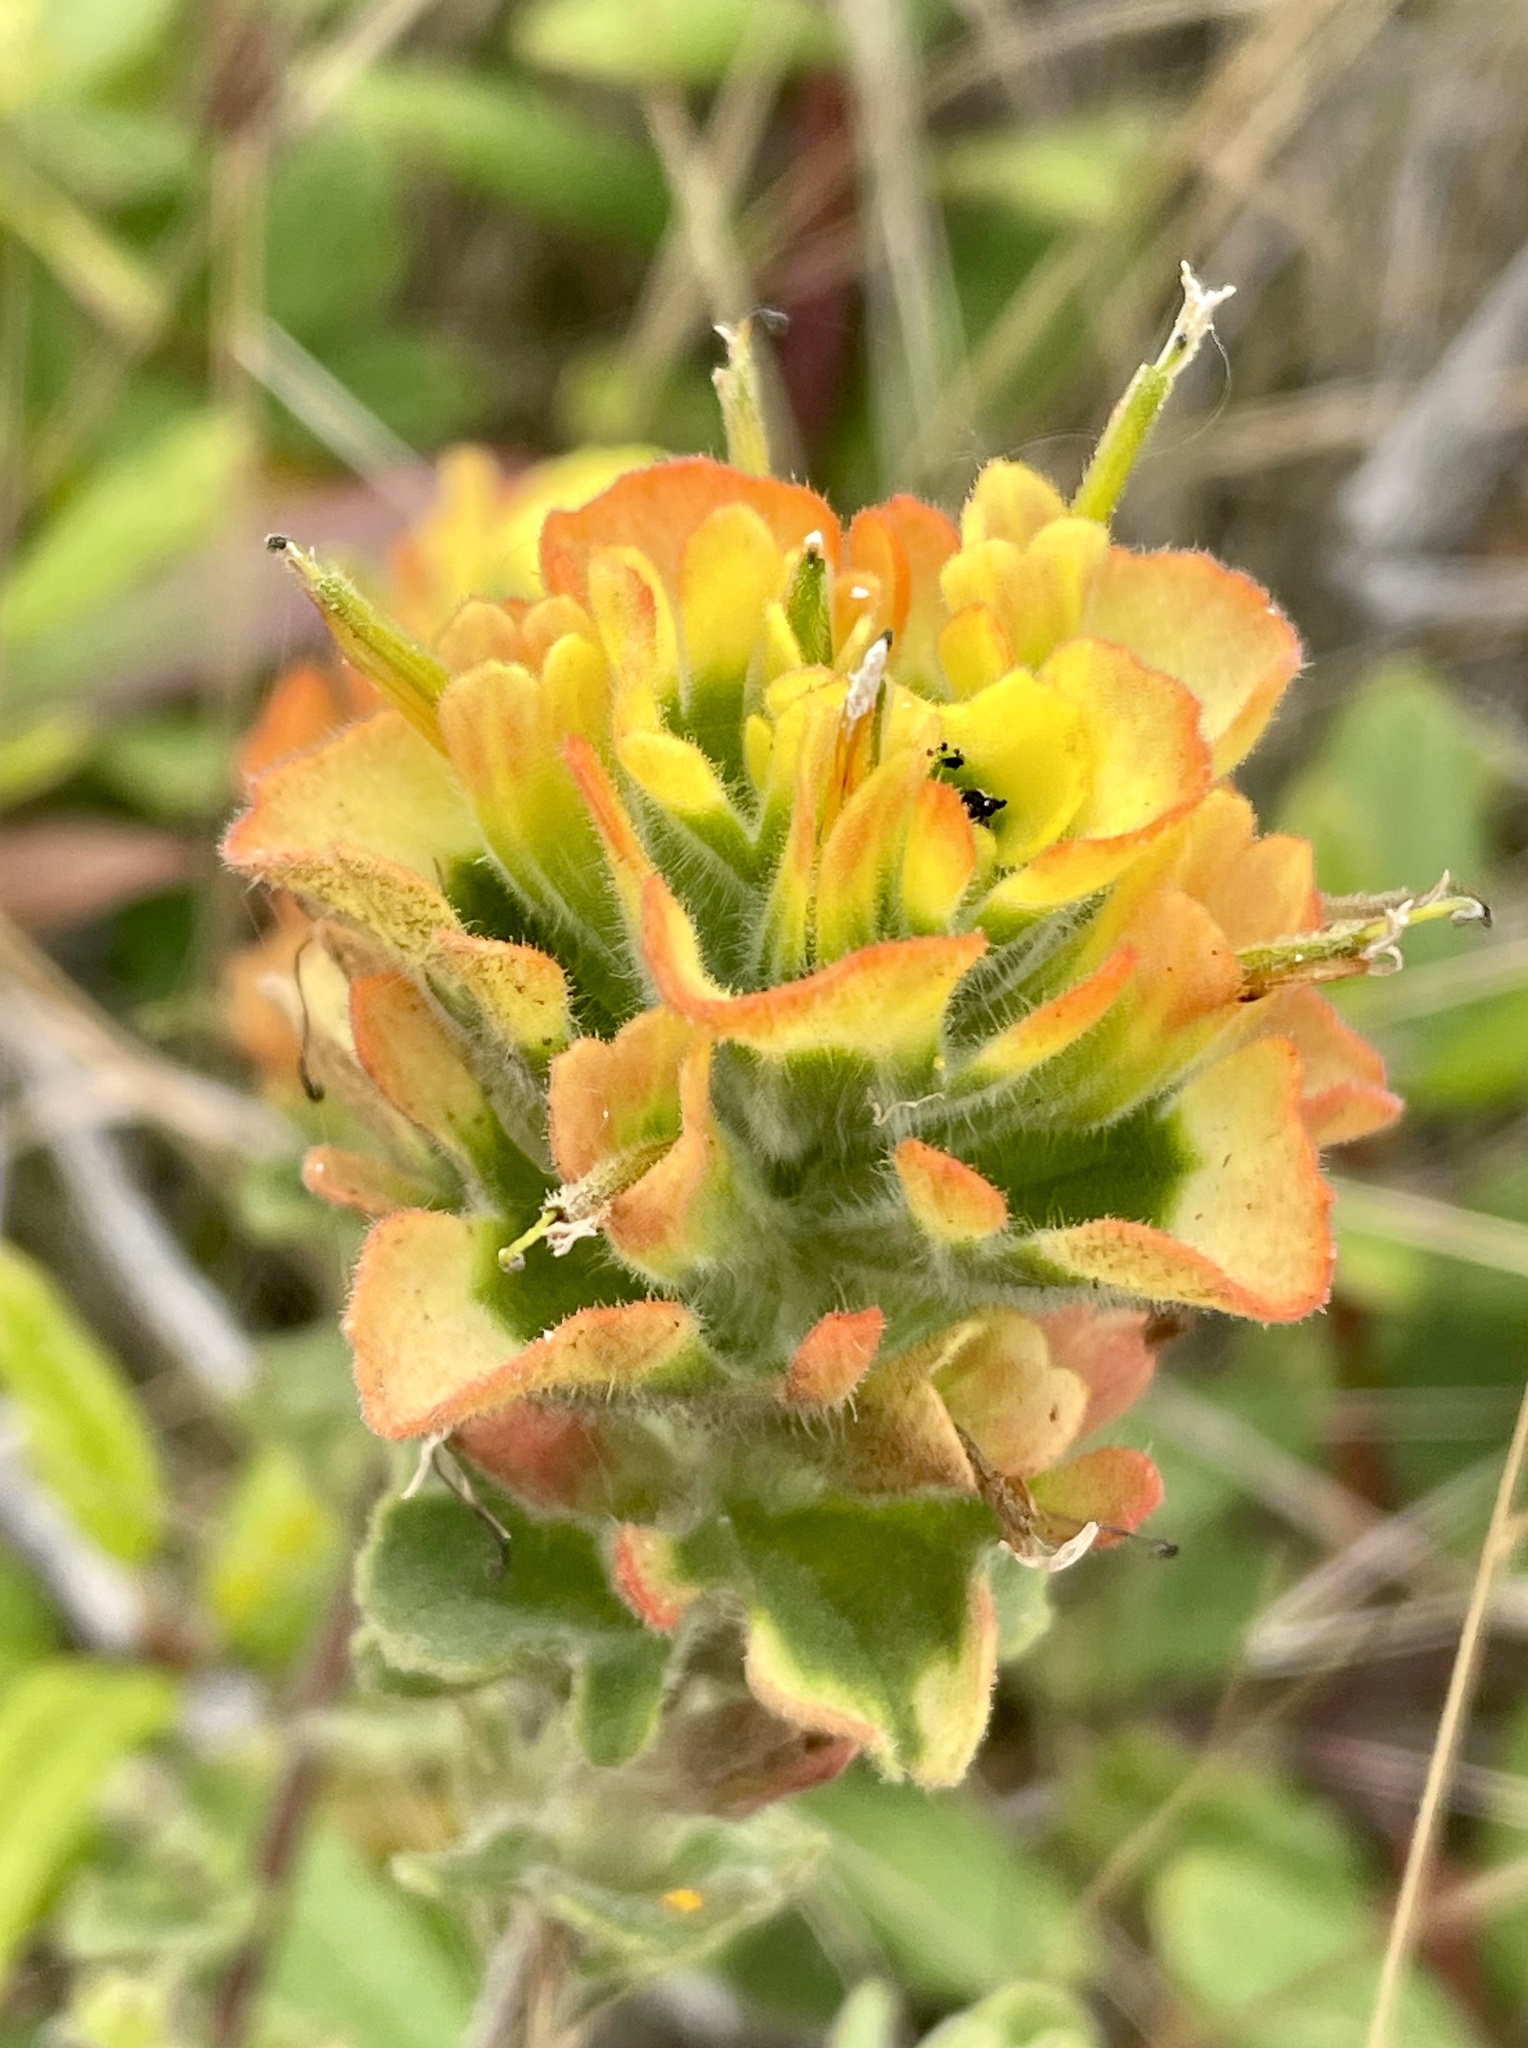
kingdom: Plantae
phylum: Tracheophyta
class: Magnoliopsida
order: Lamiales
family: Orobanchaceae
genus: Castilleja
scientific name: Castilleja latifolia
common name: Monterey indian paintbrush
